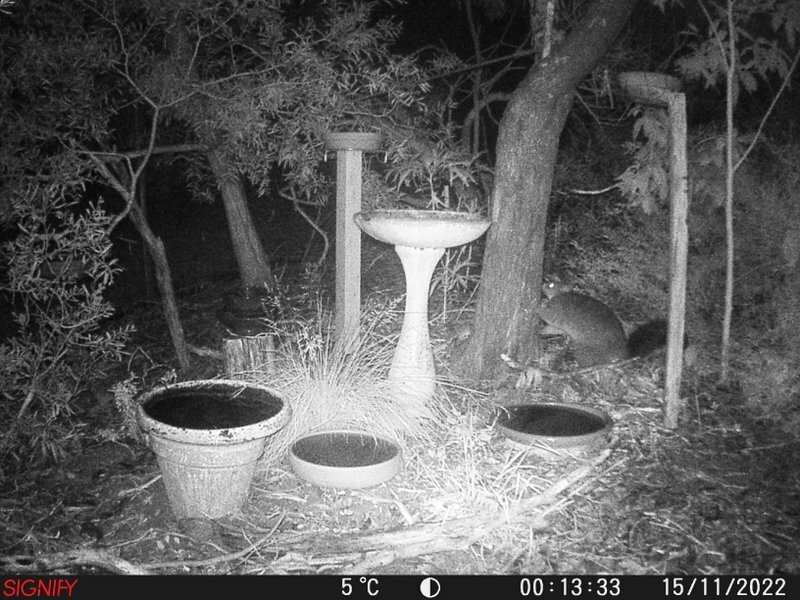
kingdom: Animalia
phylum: Chordata
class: Mammalia
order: Diprotodontia
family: Phalangeridae
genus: Trichosurus
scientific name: Trichosurus vulpecula
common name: Common brushtail
